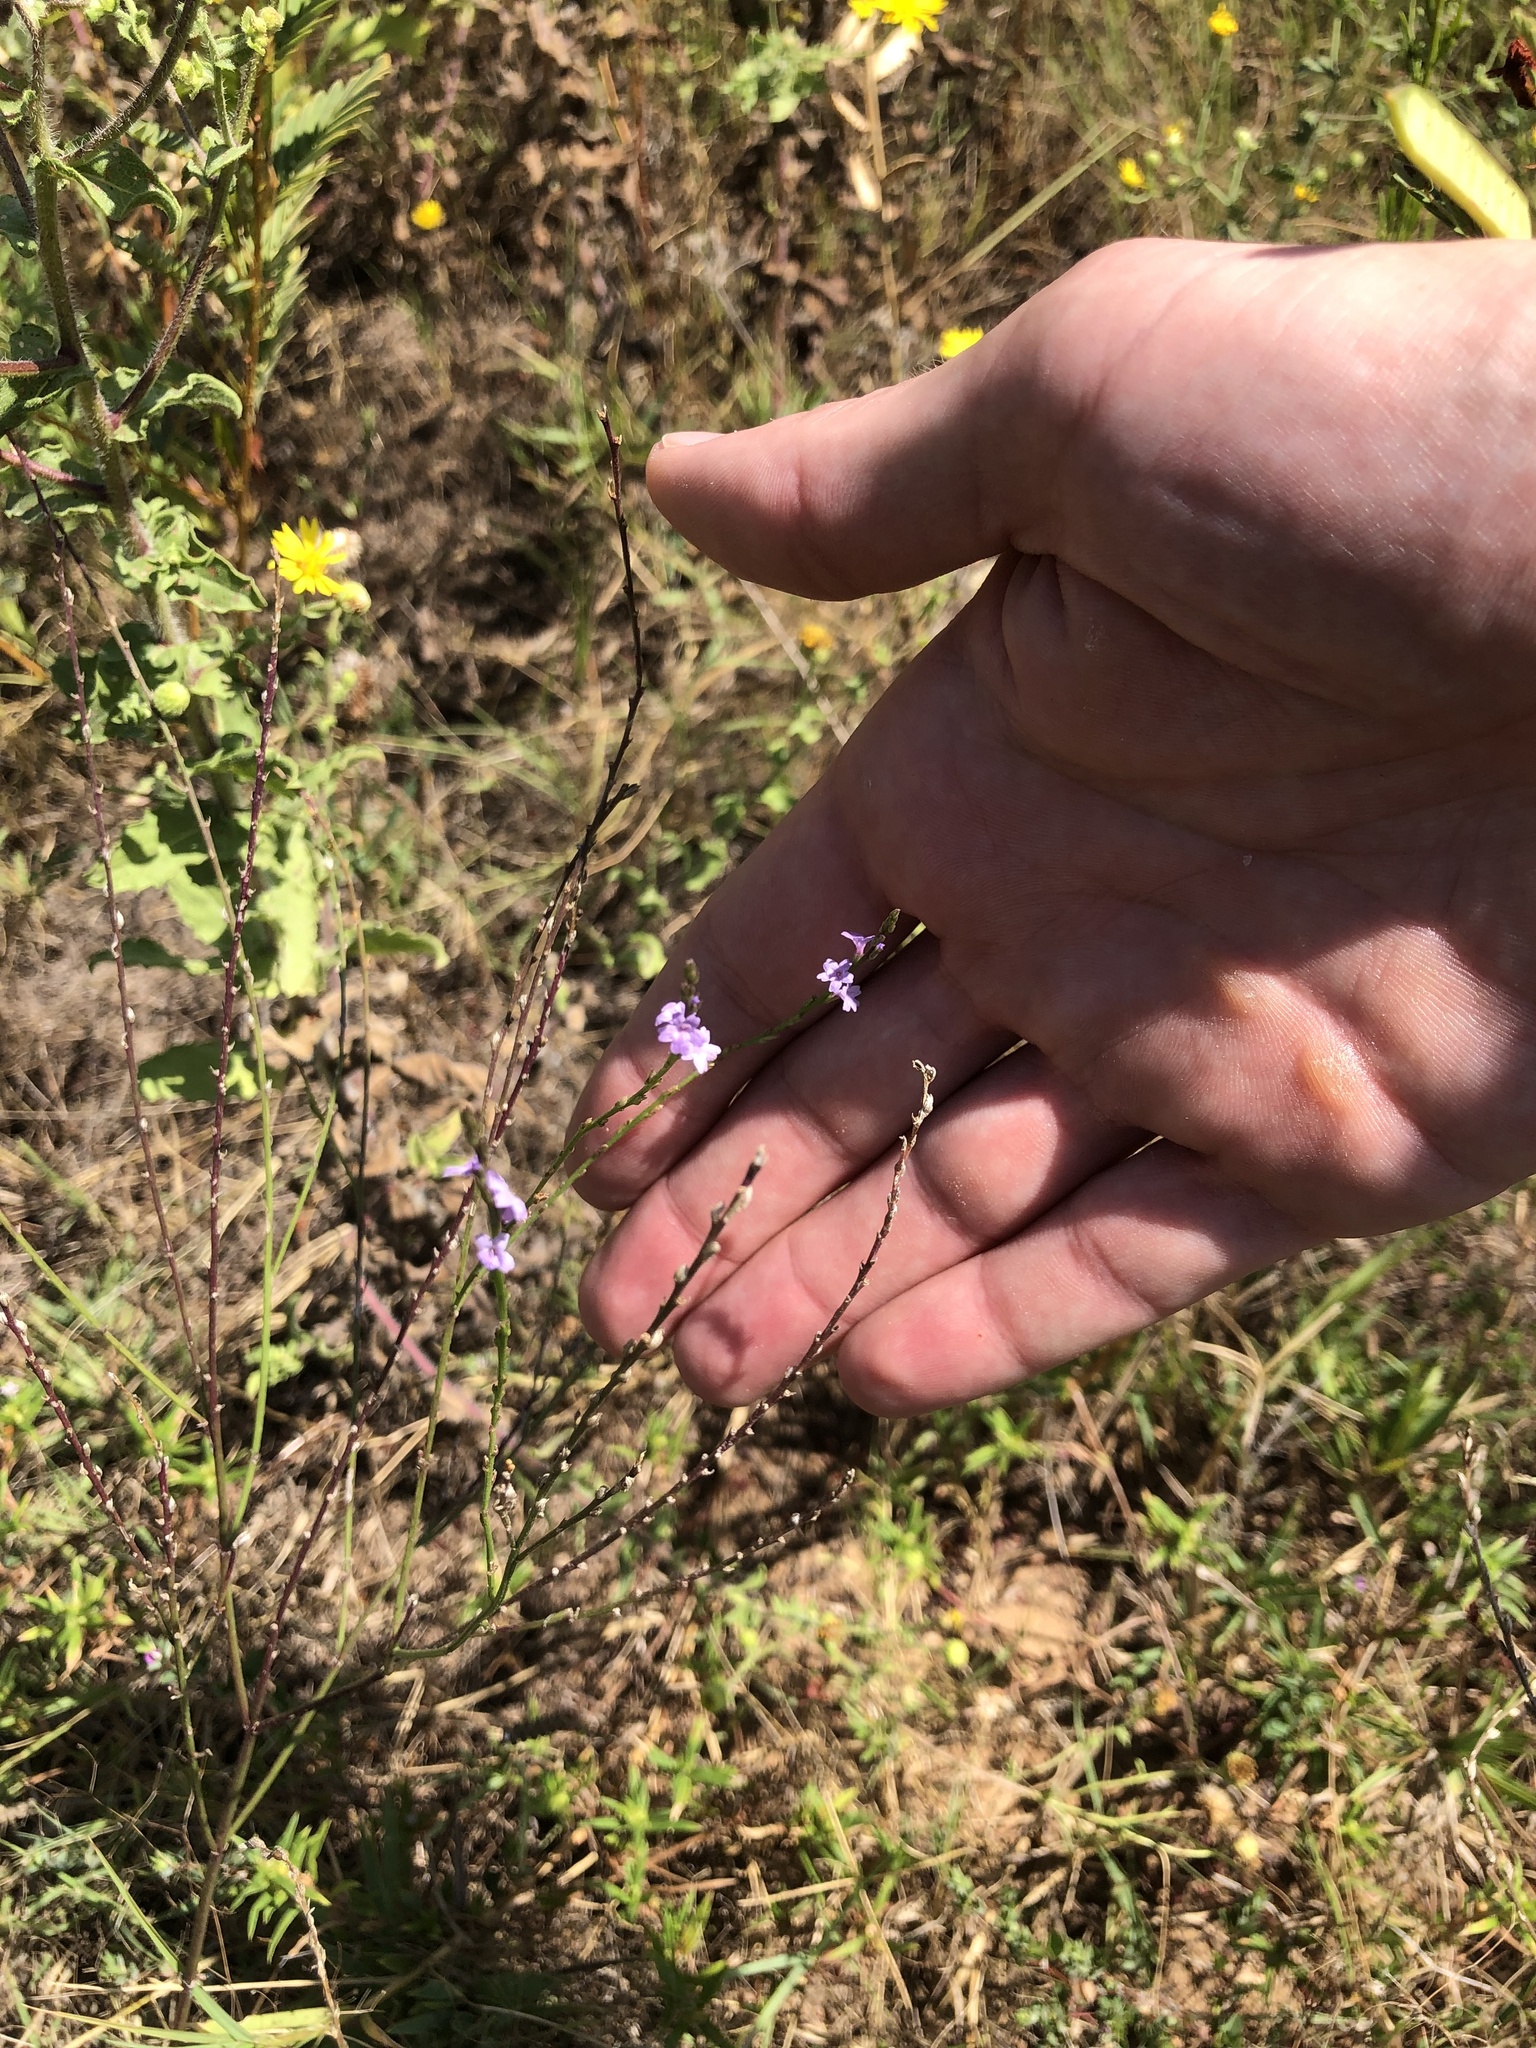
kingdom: Plantae
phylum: Tracheophyta
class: Magnoliopsida
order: Lamiales
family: Verbenaceae
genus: Verbena
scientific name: Verbena halei
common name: Texas vervain
